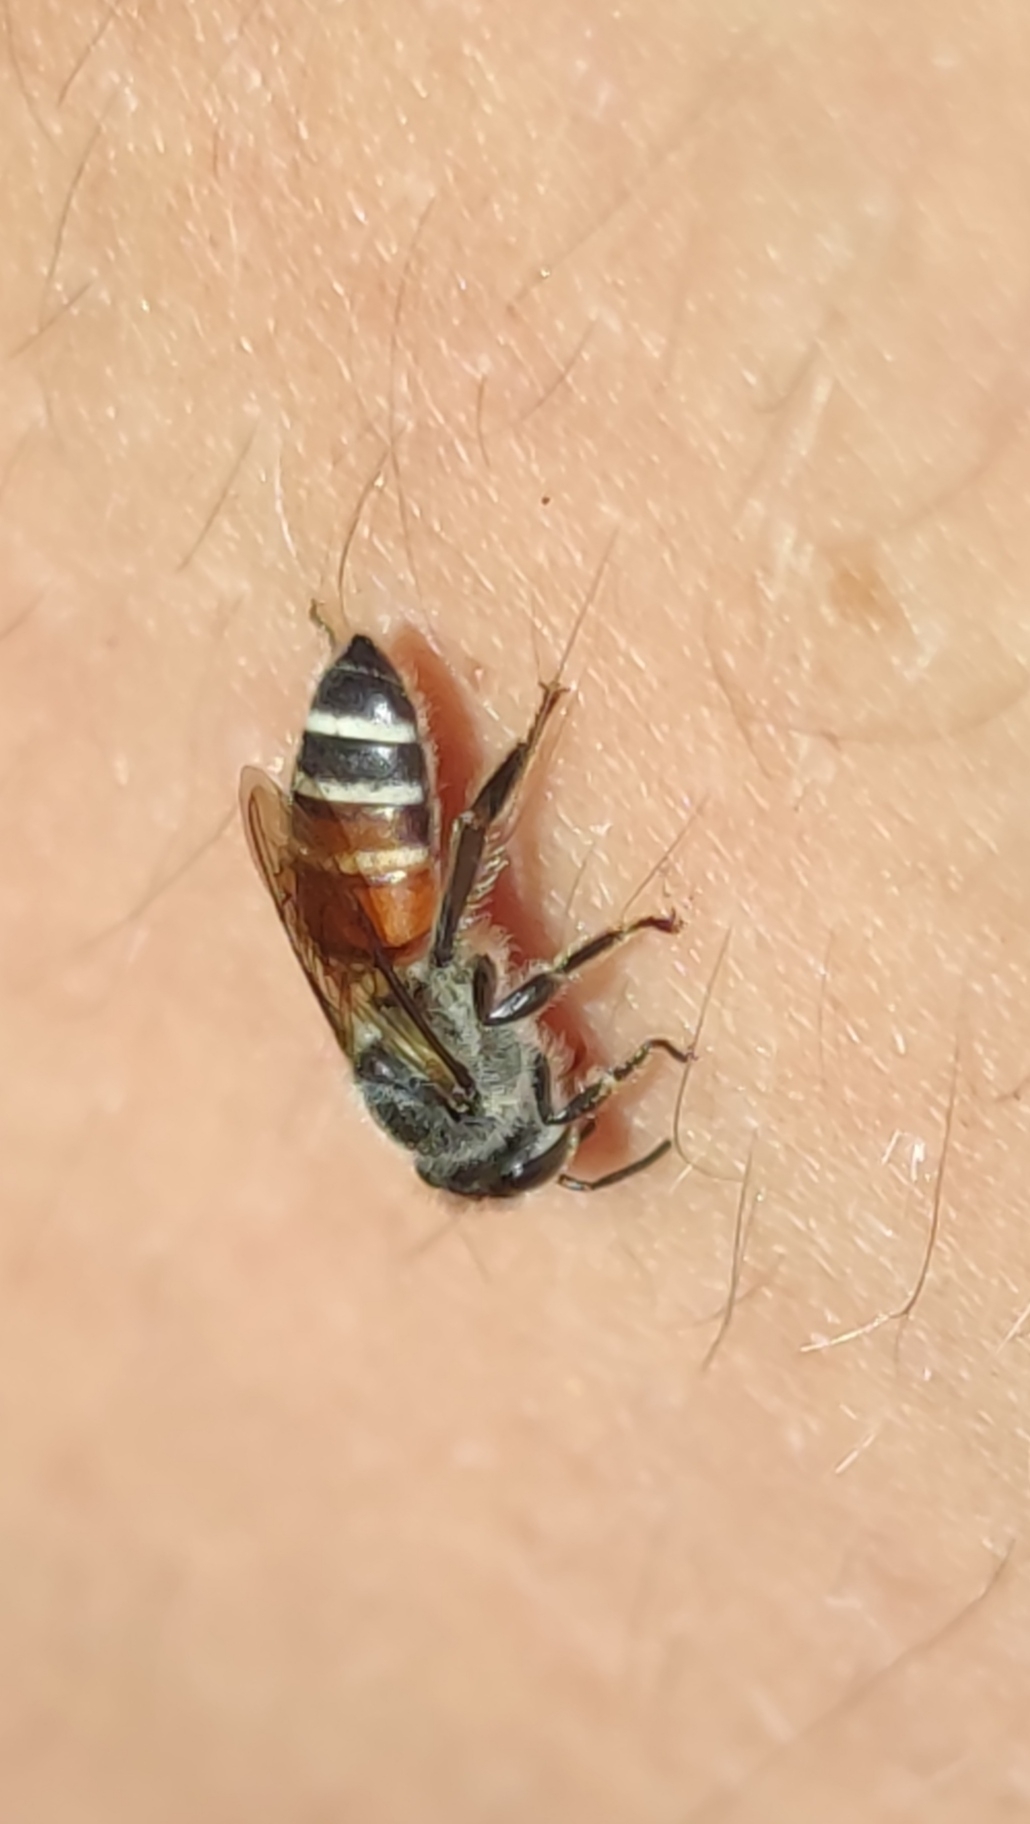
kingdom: Animalia
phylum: Arthropoda
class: Insecta
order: Hymenoptera
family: Apidae
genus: Apis
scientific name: Apis florea
